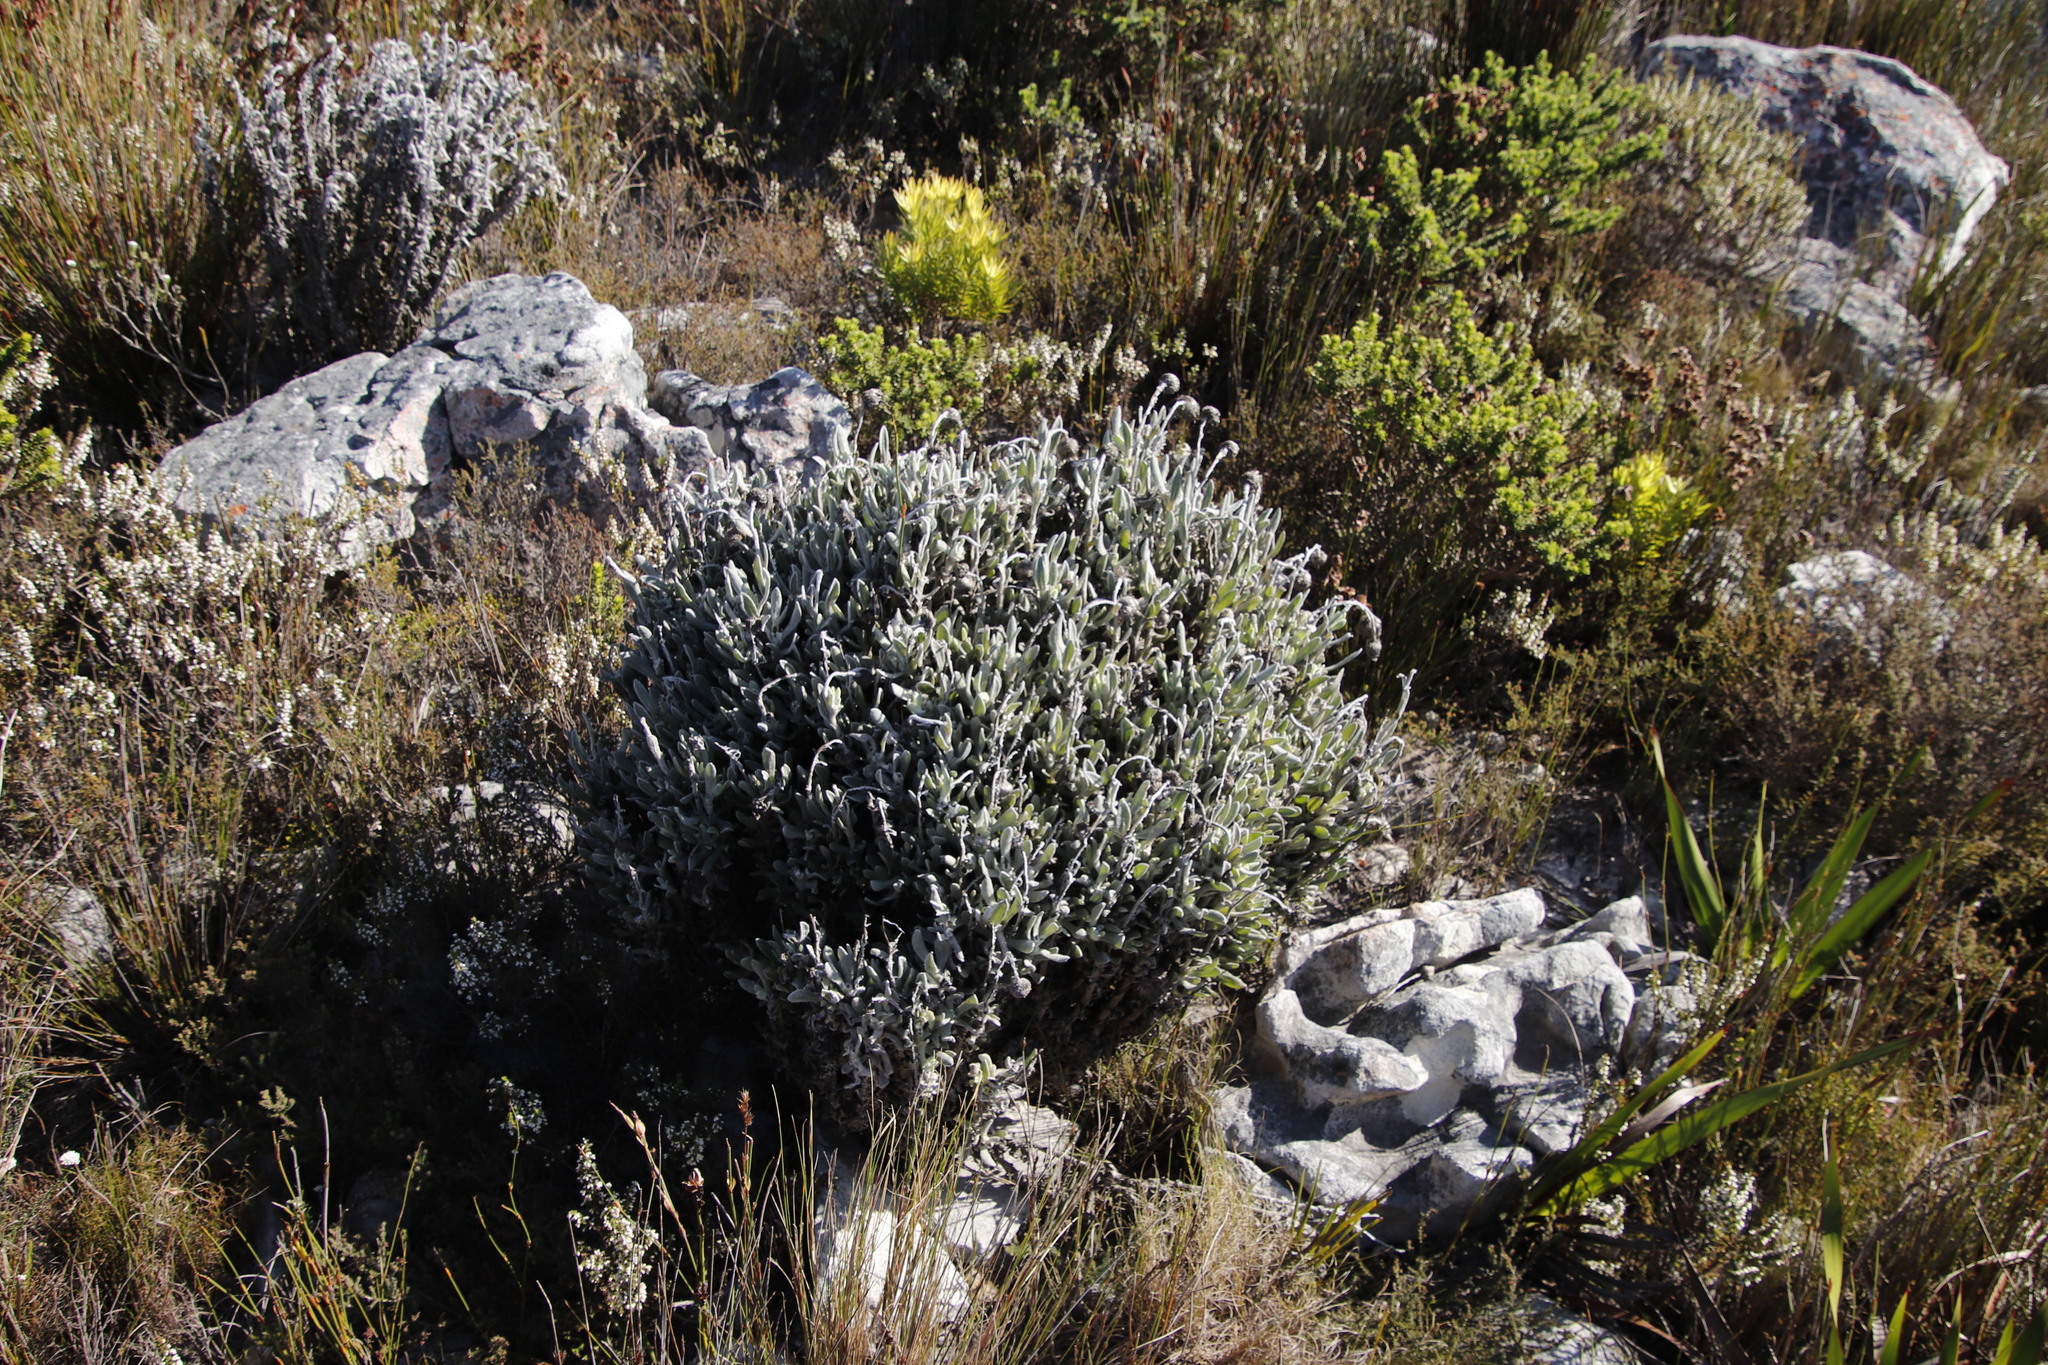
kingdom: Plantae
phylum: Tracheophyta
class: Magnoliopsida
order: Asterales
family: Asteraceae
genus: Syncarpha
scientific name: Syncarpha vestita
